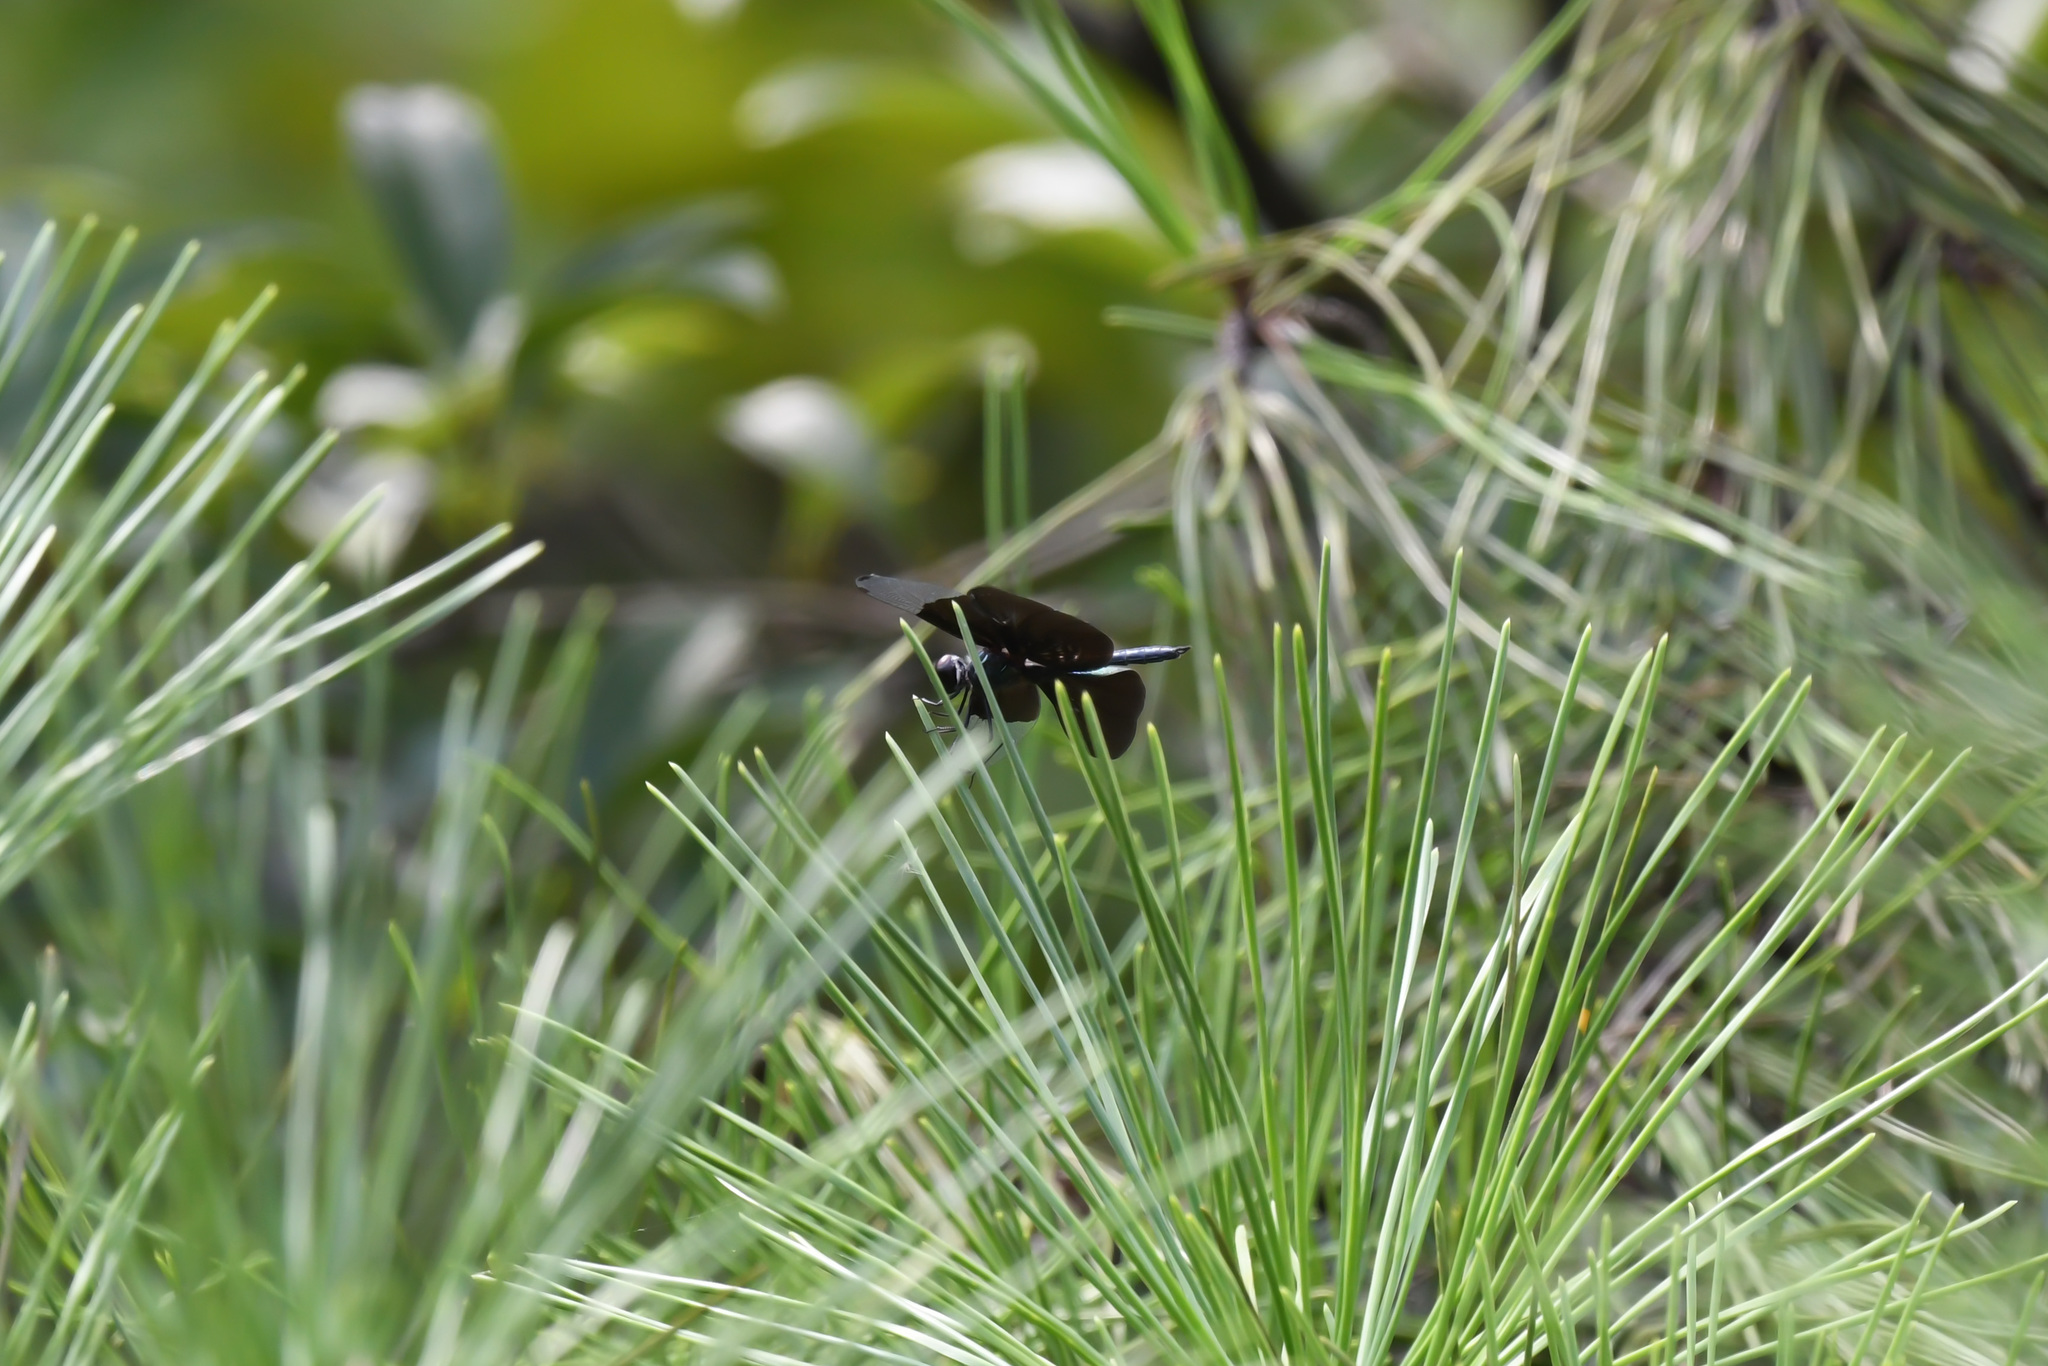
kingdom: Animalia
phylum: Arthropoda
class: Insecta
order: Odonata
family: Libellulidae
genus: Rhyothemis
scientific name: Rhyothemis fuliginosa
